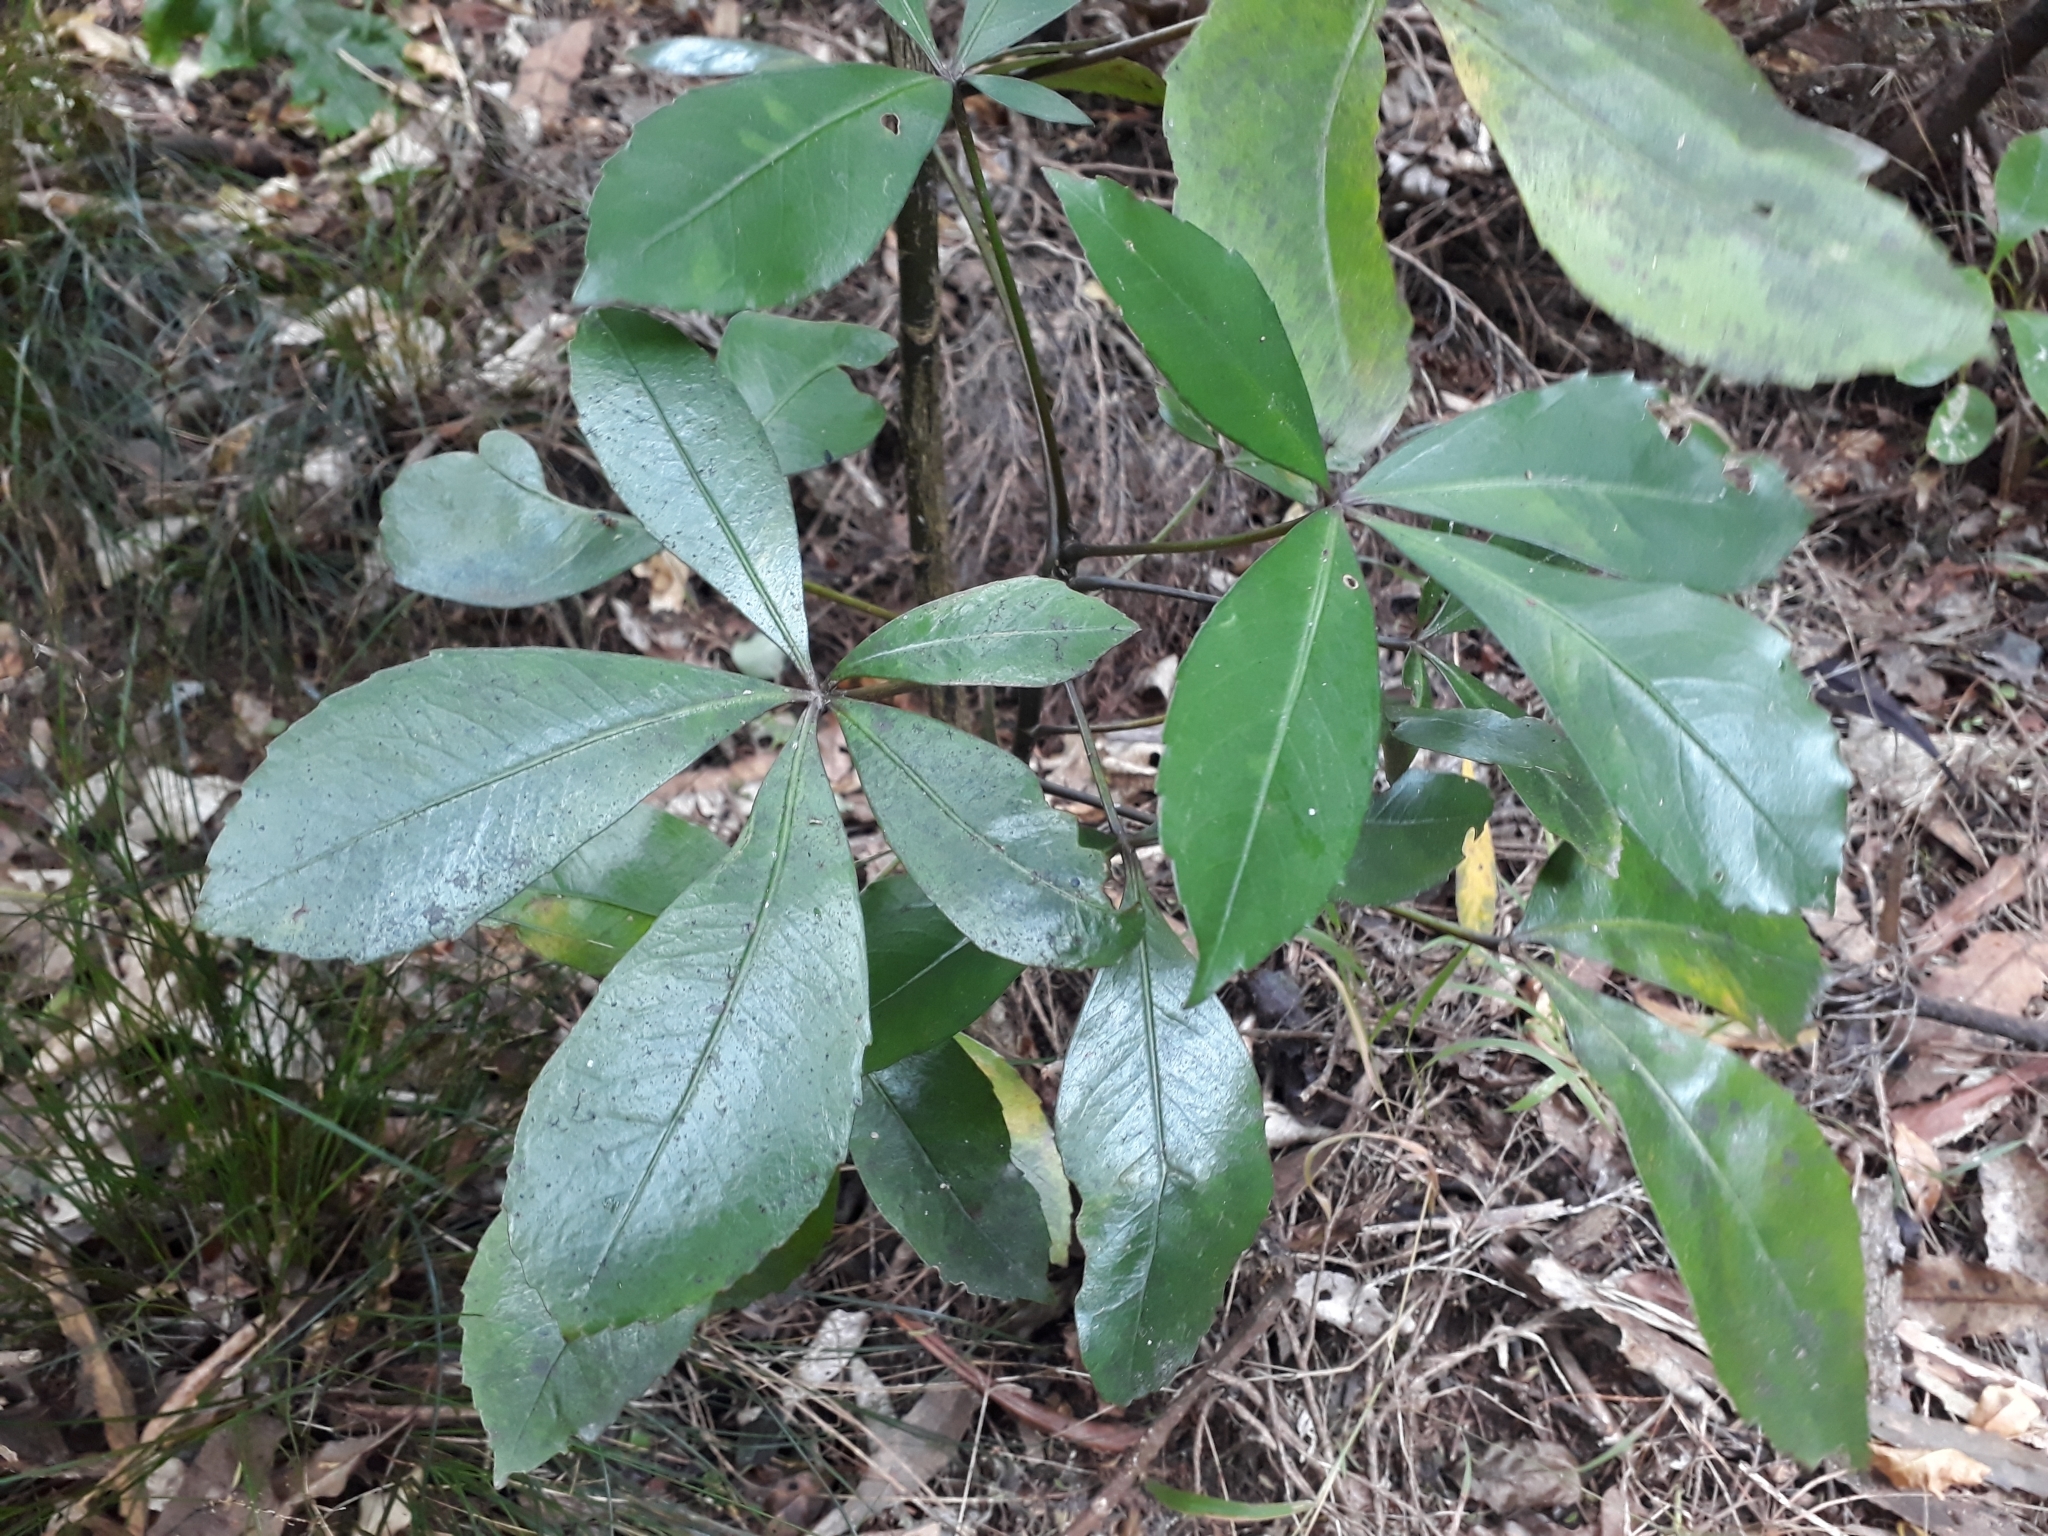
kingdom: Plantae
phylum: Tracheophyta
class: Magnoliopsida
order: Apiales
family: Araliaceae
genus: Pseudopanax
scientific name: Pseudopanax lessonii
